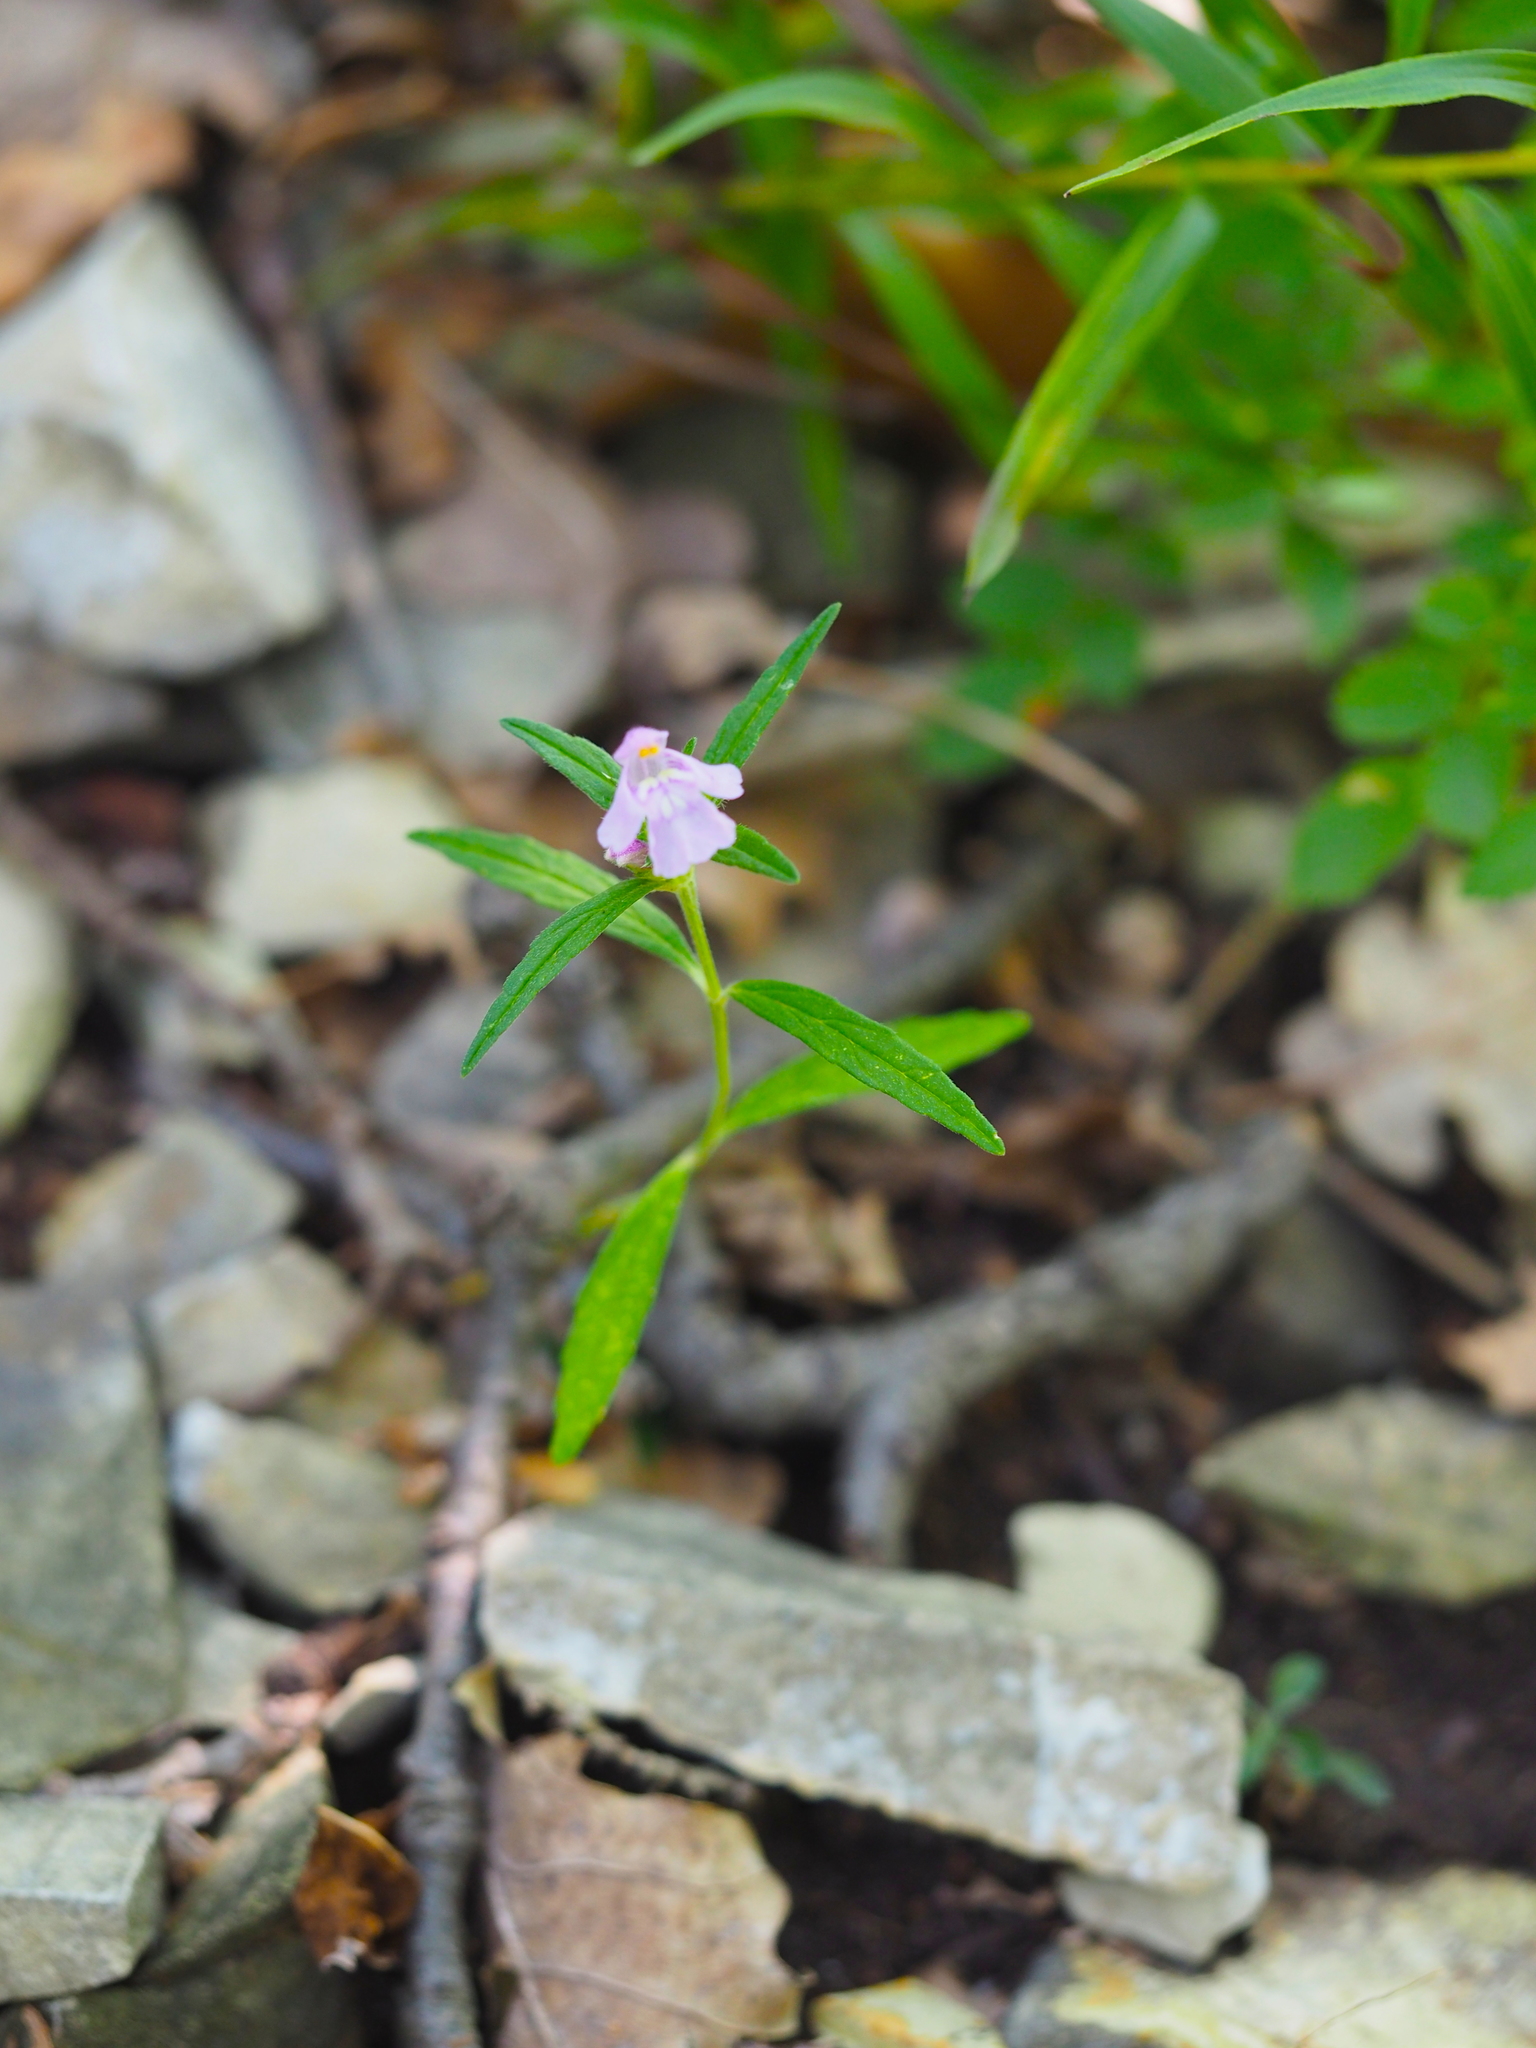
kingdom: Plantae
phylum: Tracheophyta
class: Magnoliopsida
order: Lamiales
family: Lamiaceae
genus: Galeopsis
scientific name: Galeopsis angustifolia
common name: Red hemp-nettle
